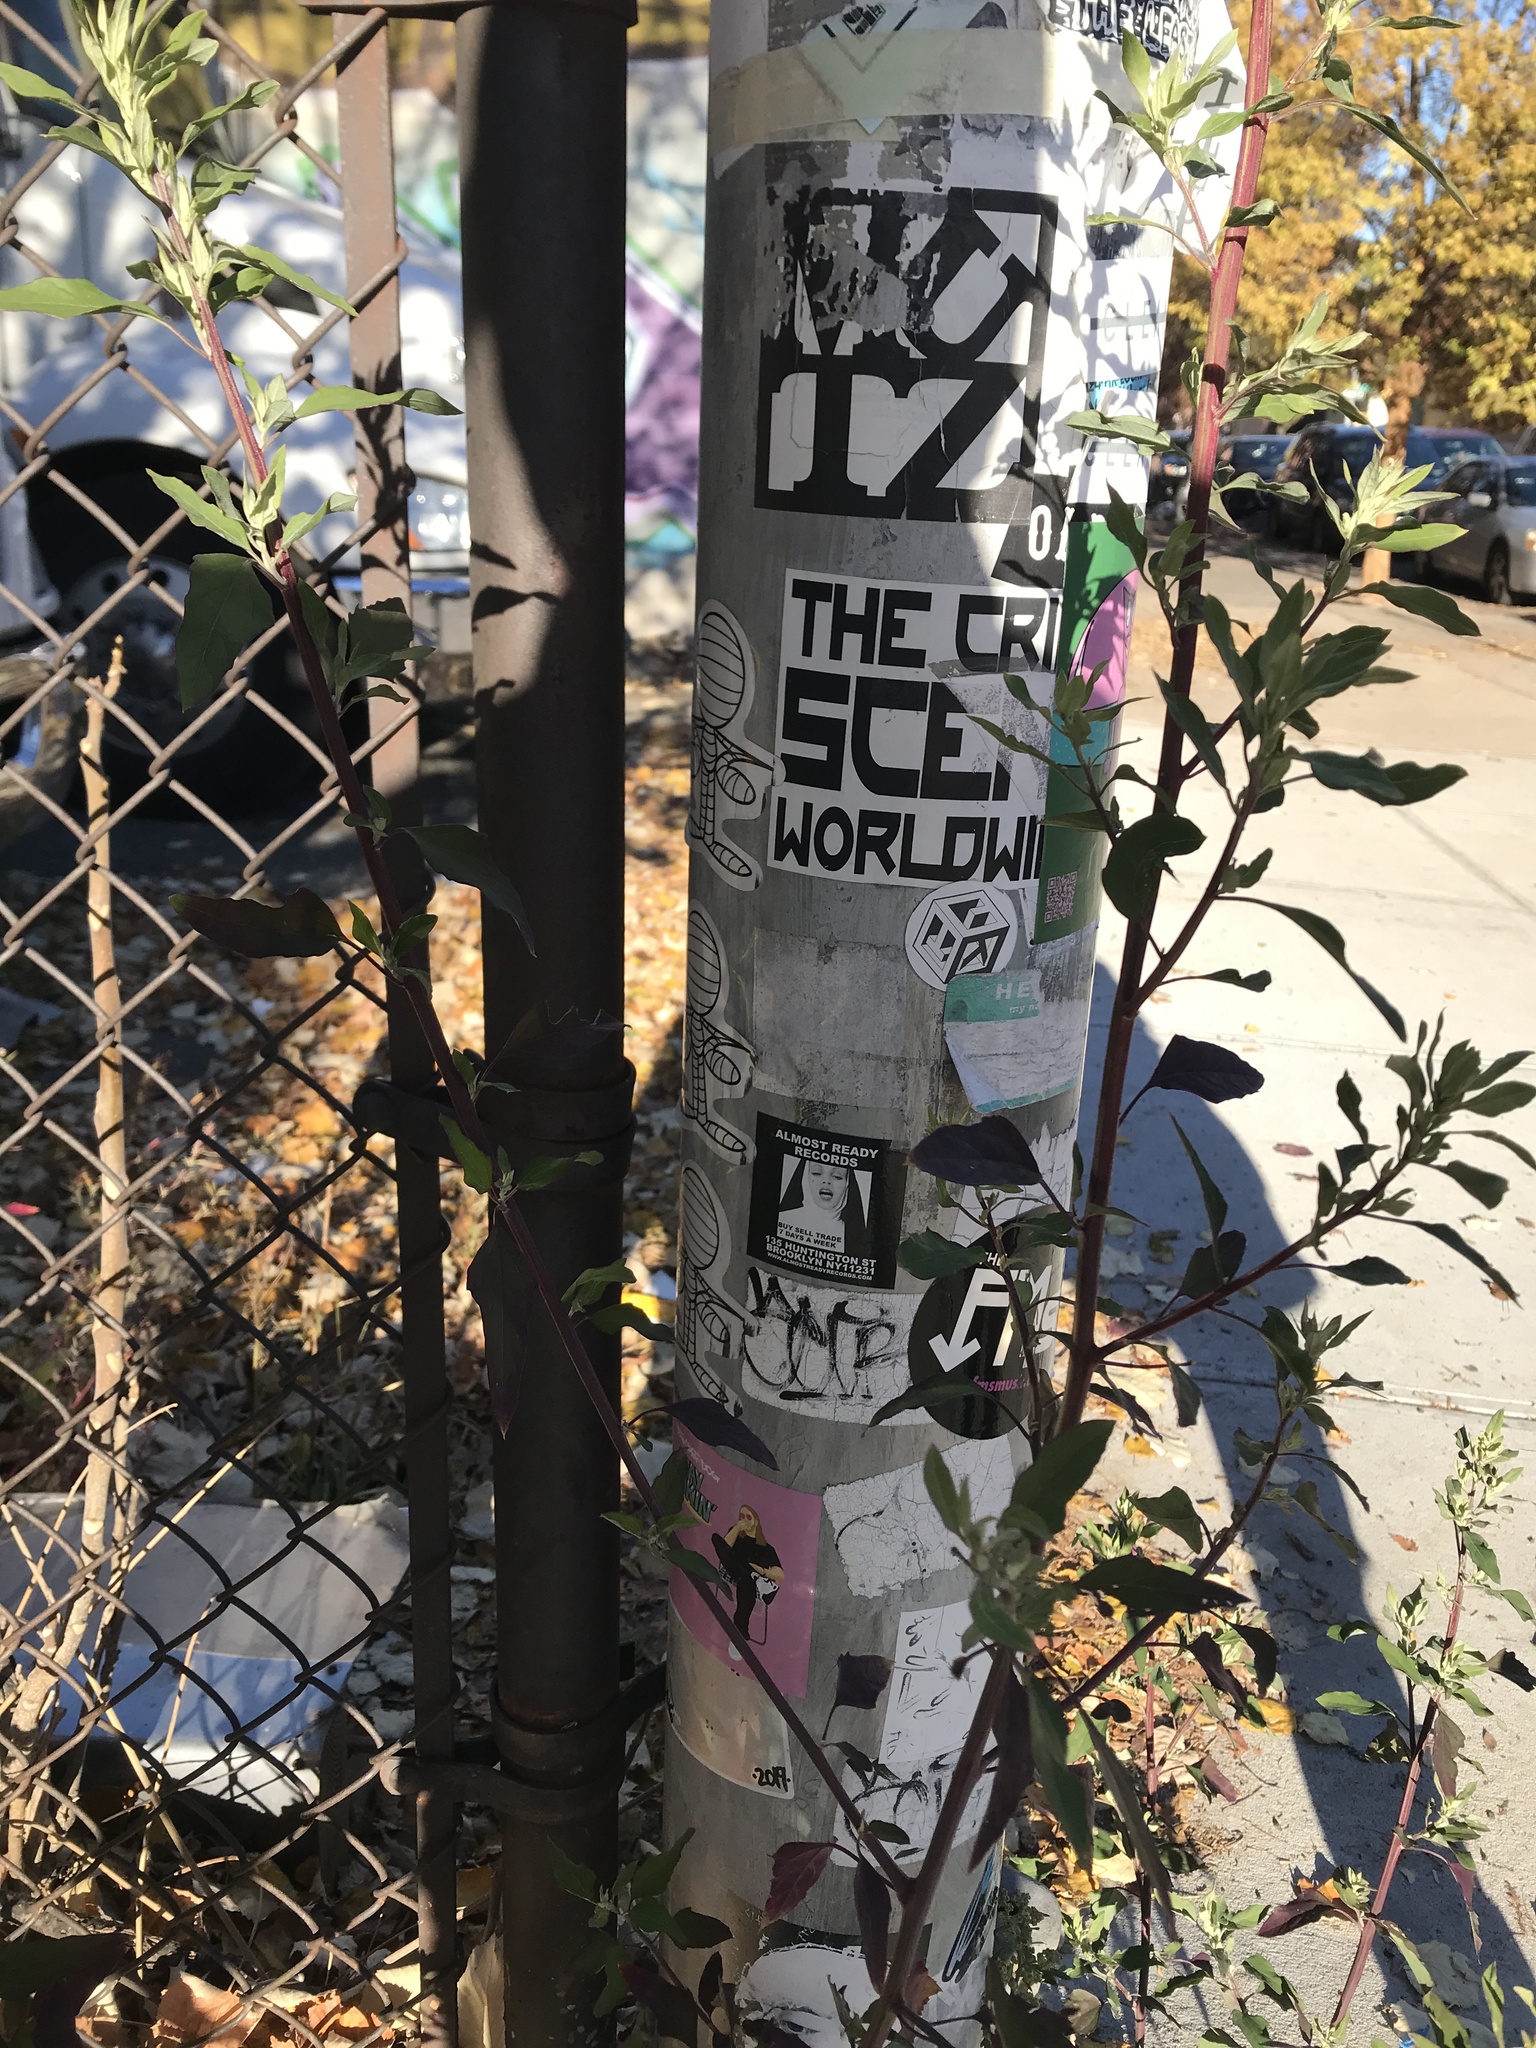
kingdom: Plantae
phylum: Tracheophyta
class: Magnoliopsida
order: Caryophyllales
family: Amaranthaceae
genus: Chenopodium
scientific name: Chenopodium album
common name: Fat-hen
